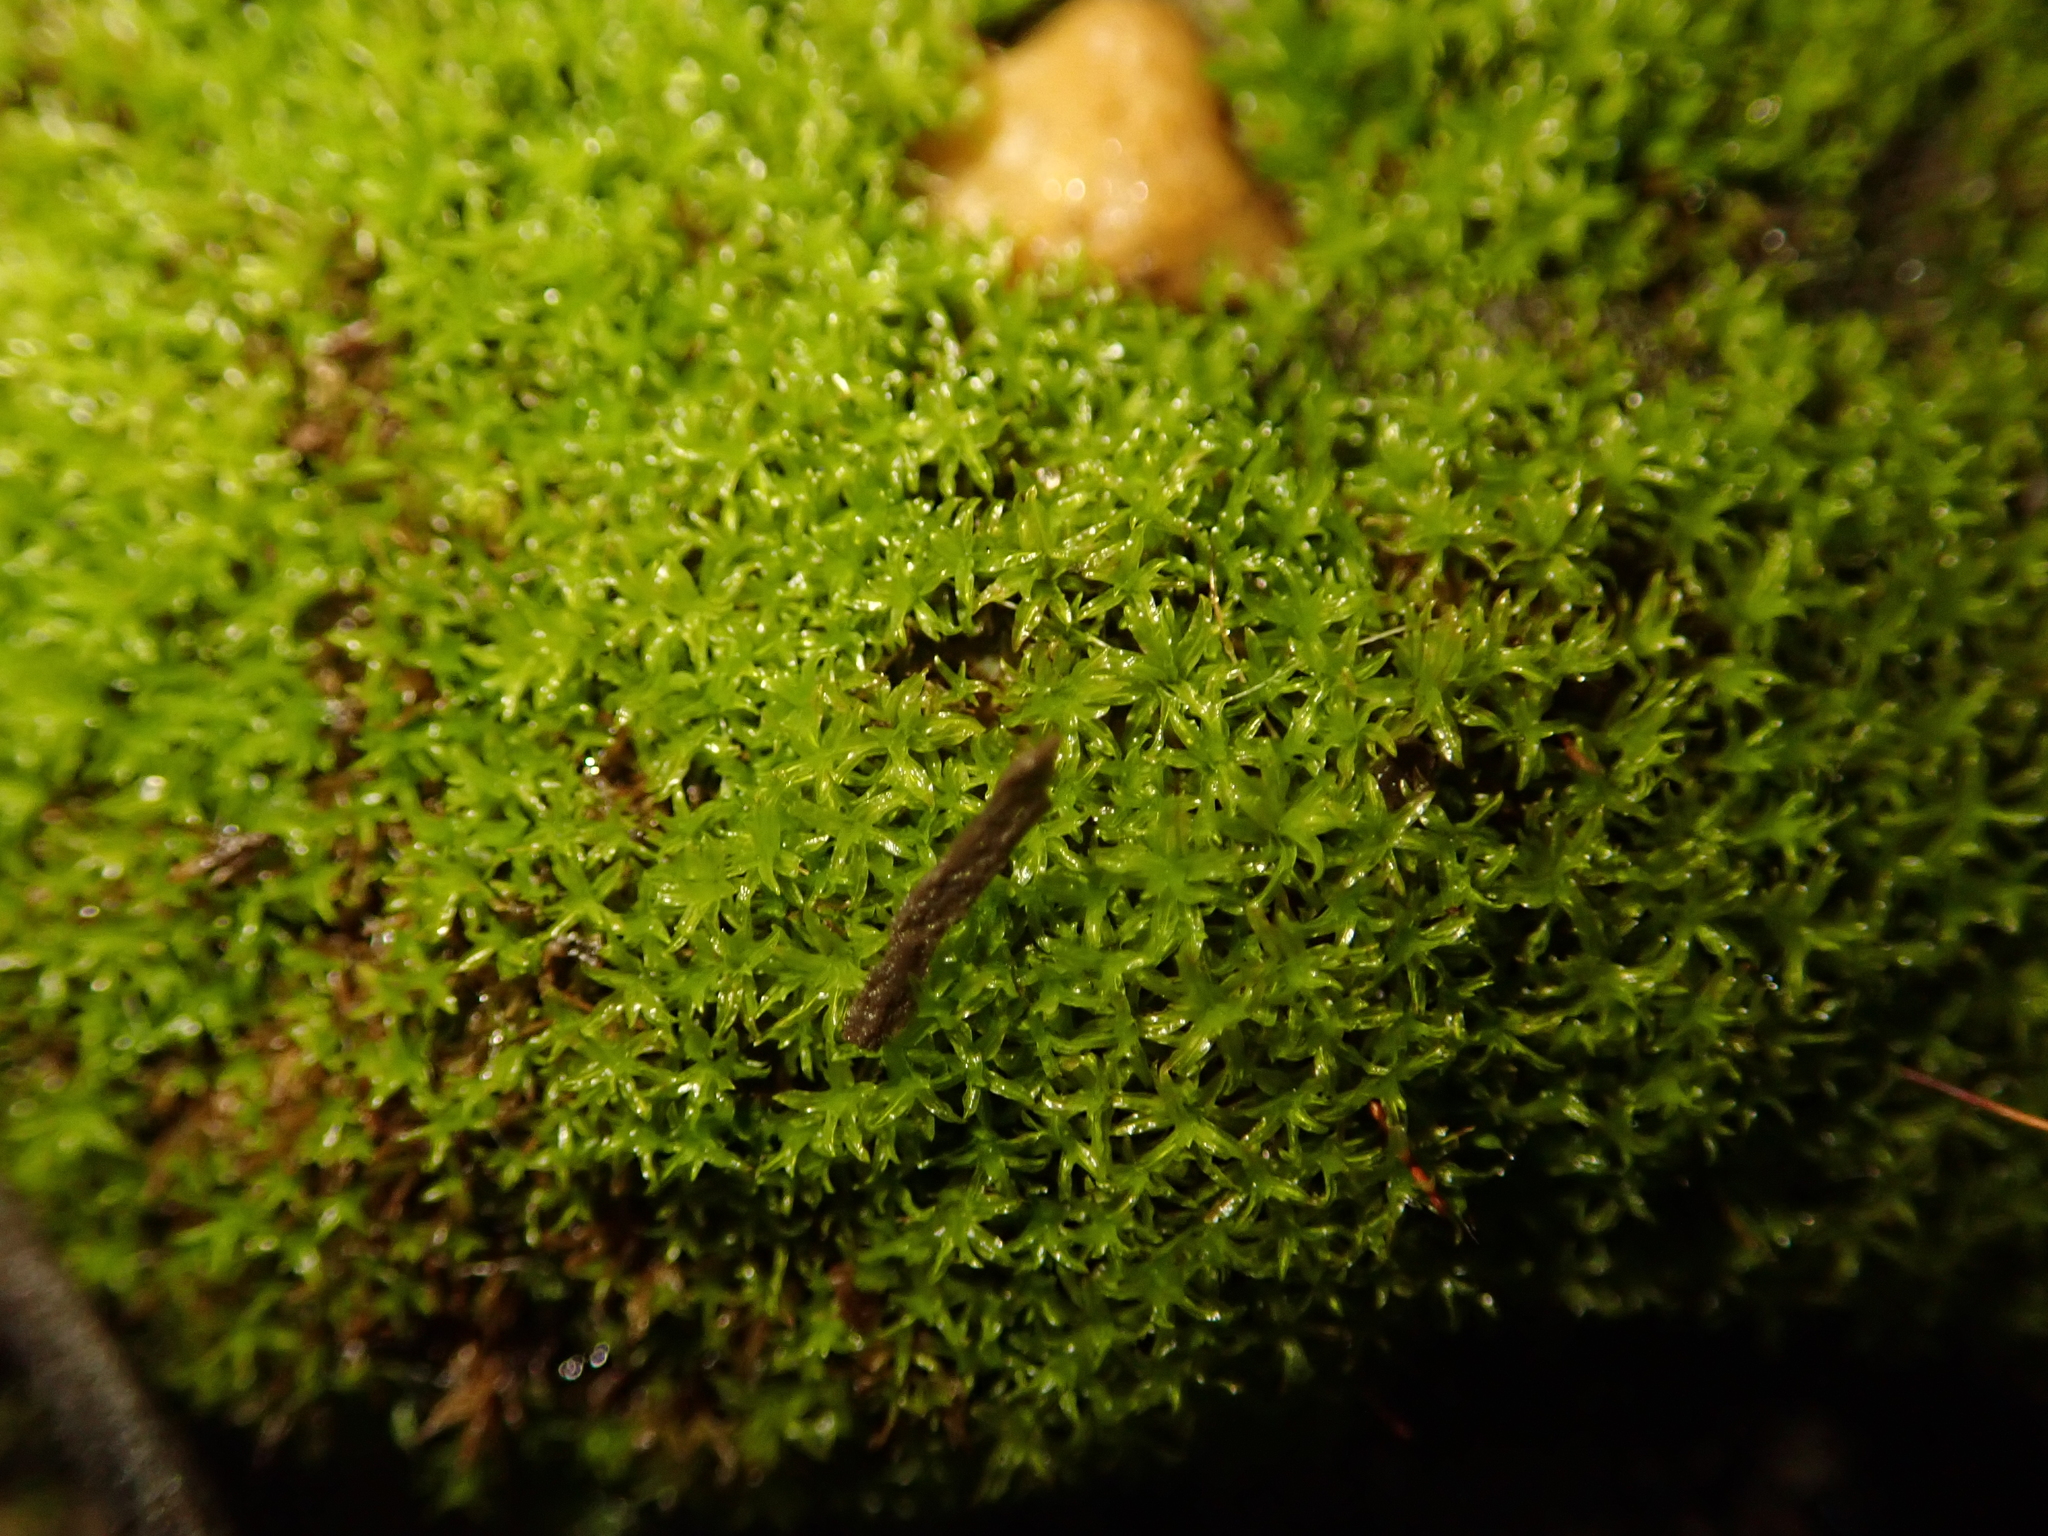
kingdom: Plantae
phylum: Bryophyta
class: Bryopsida
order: Pottiales
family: Pottiaceae
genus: Barbula
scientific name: Barbula unguiculata
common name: Prickly beard moss
